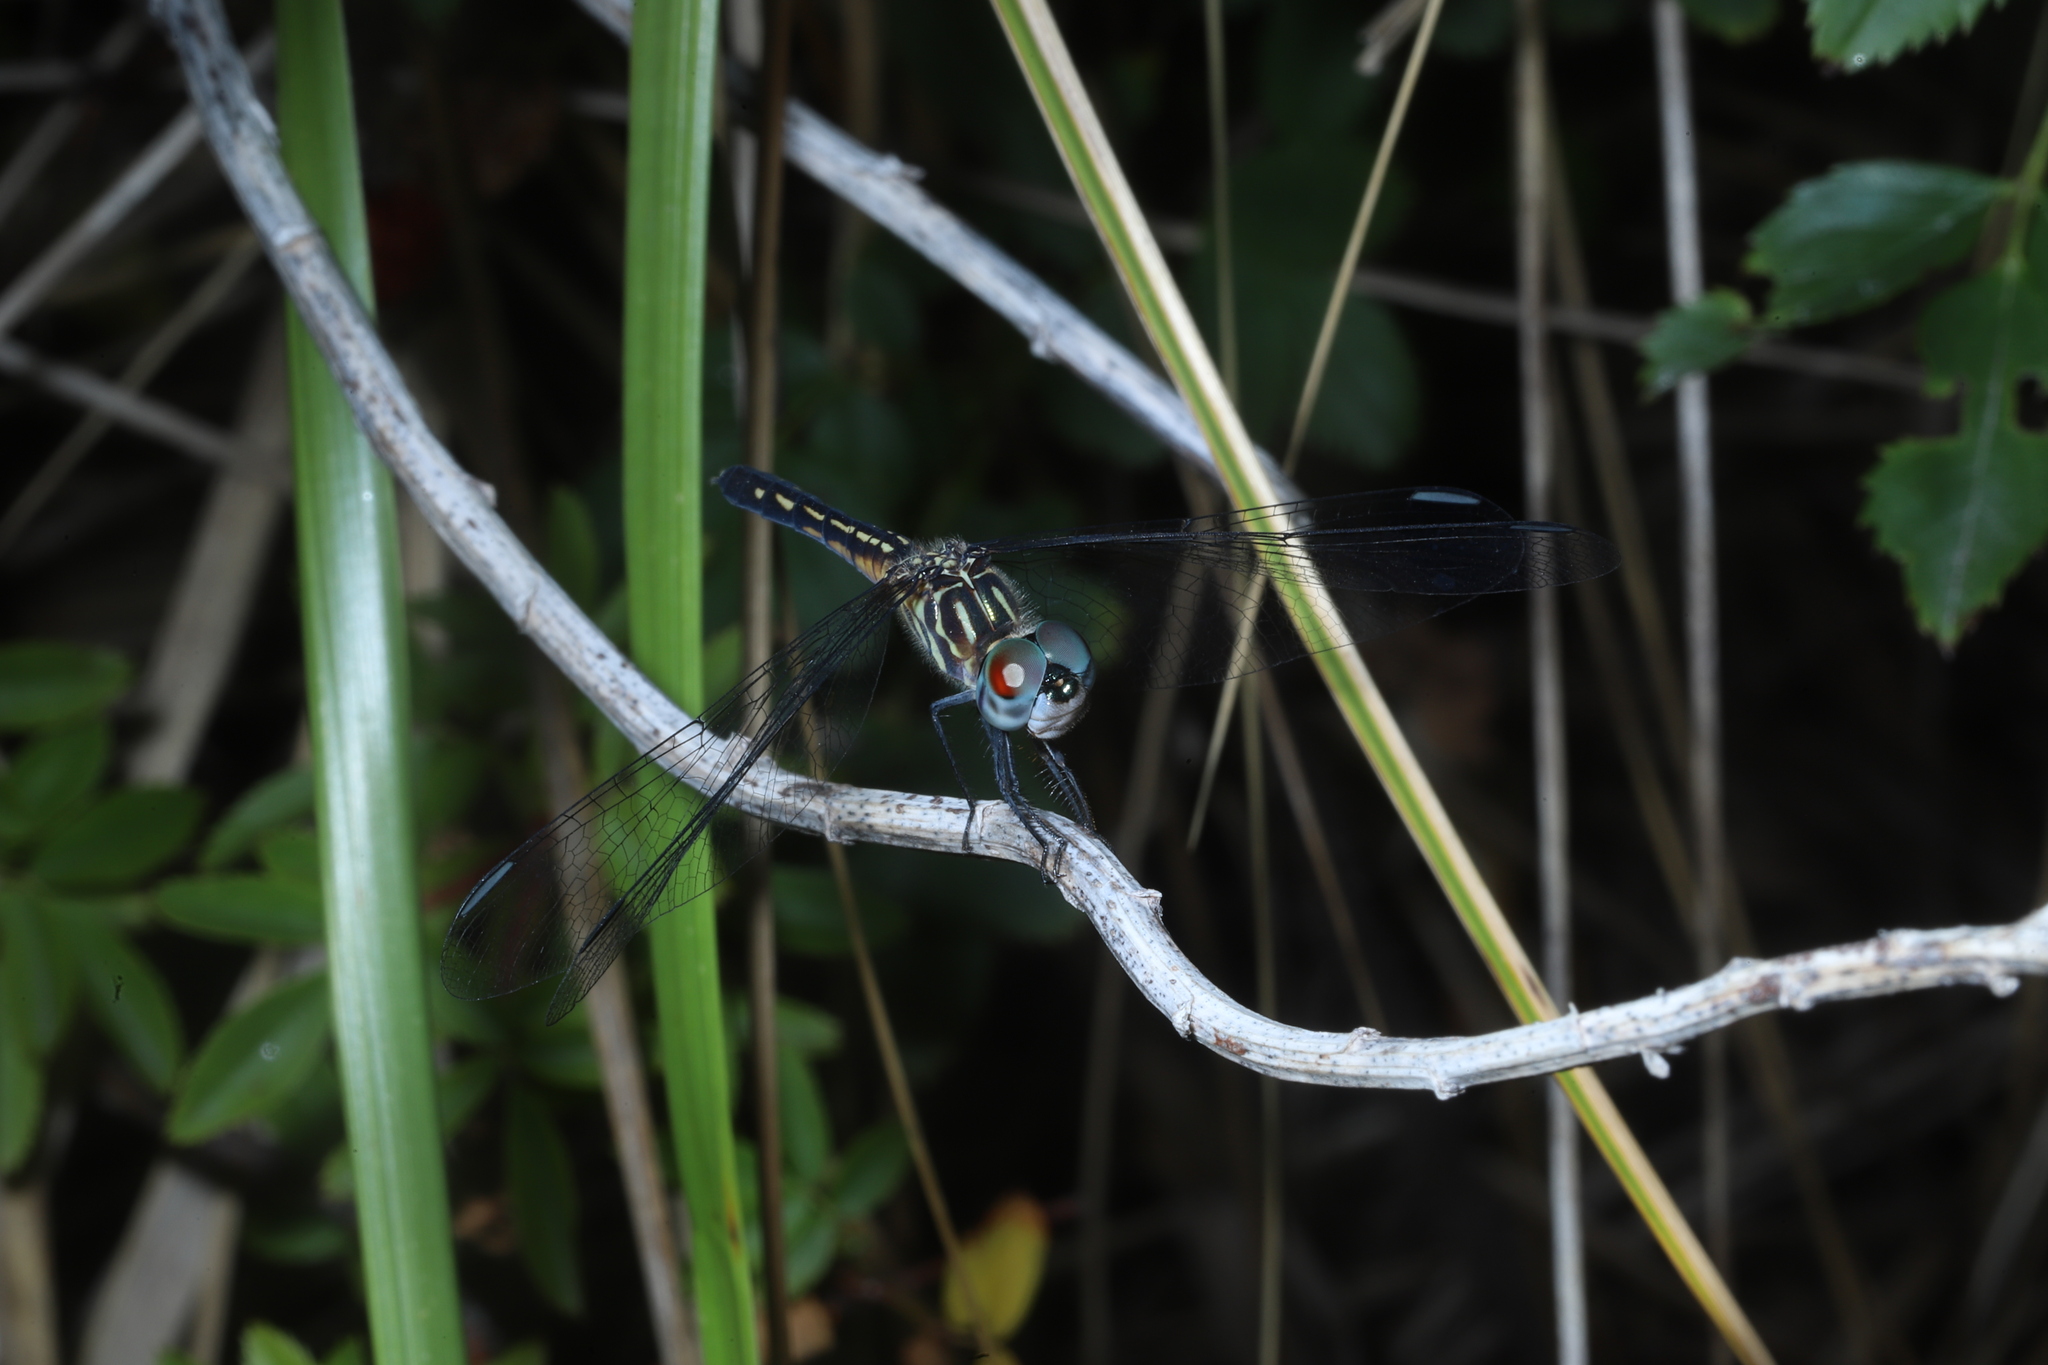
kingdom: Animalia
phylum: Arthropoda
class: Insecta
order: Odonata
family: Libellulidae
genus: Pachydiplax
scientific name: Pachydiplax longipennis
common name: Blue dasher
